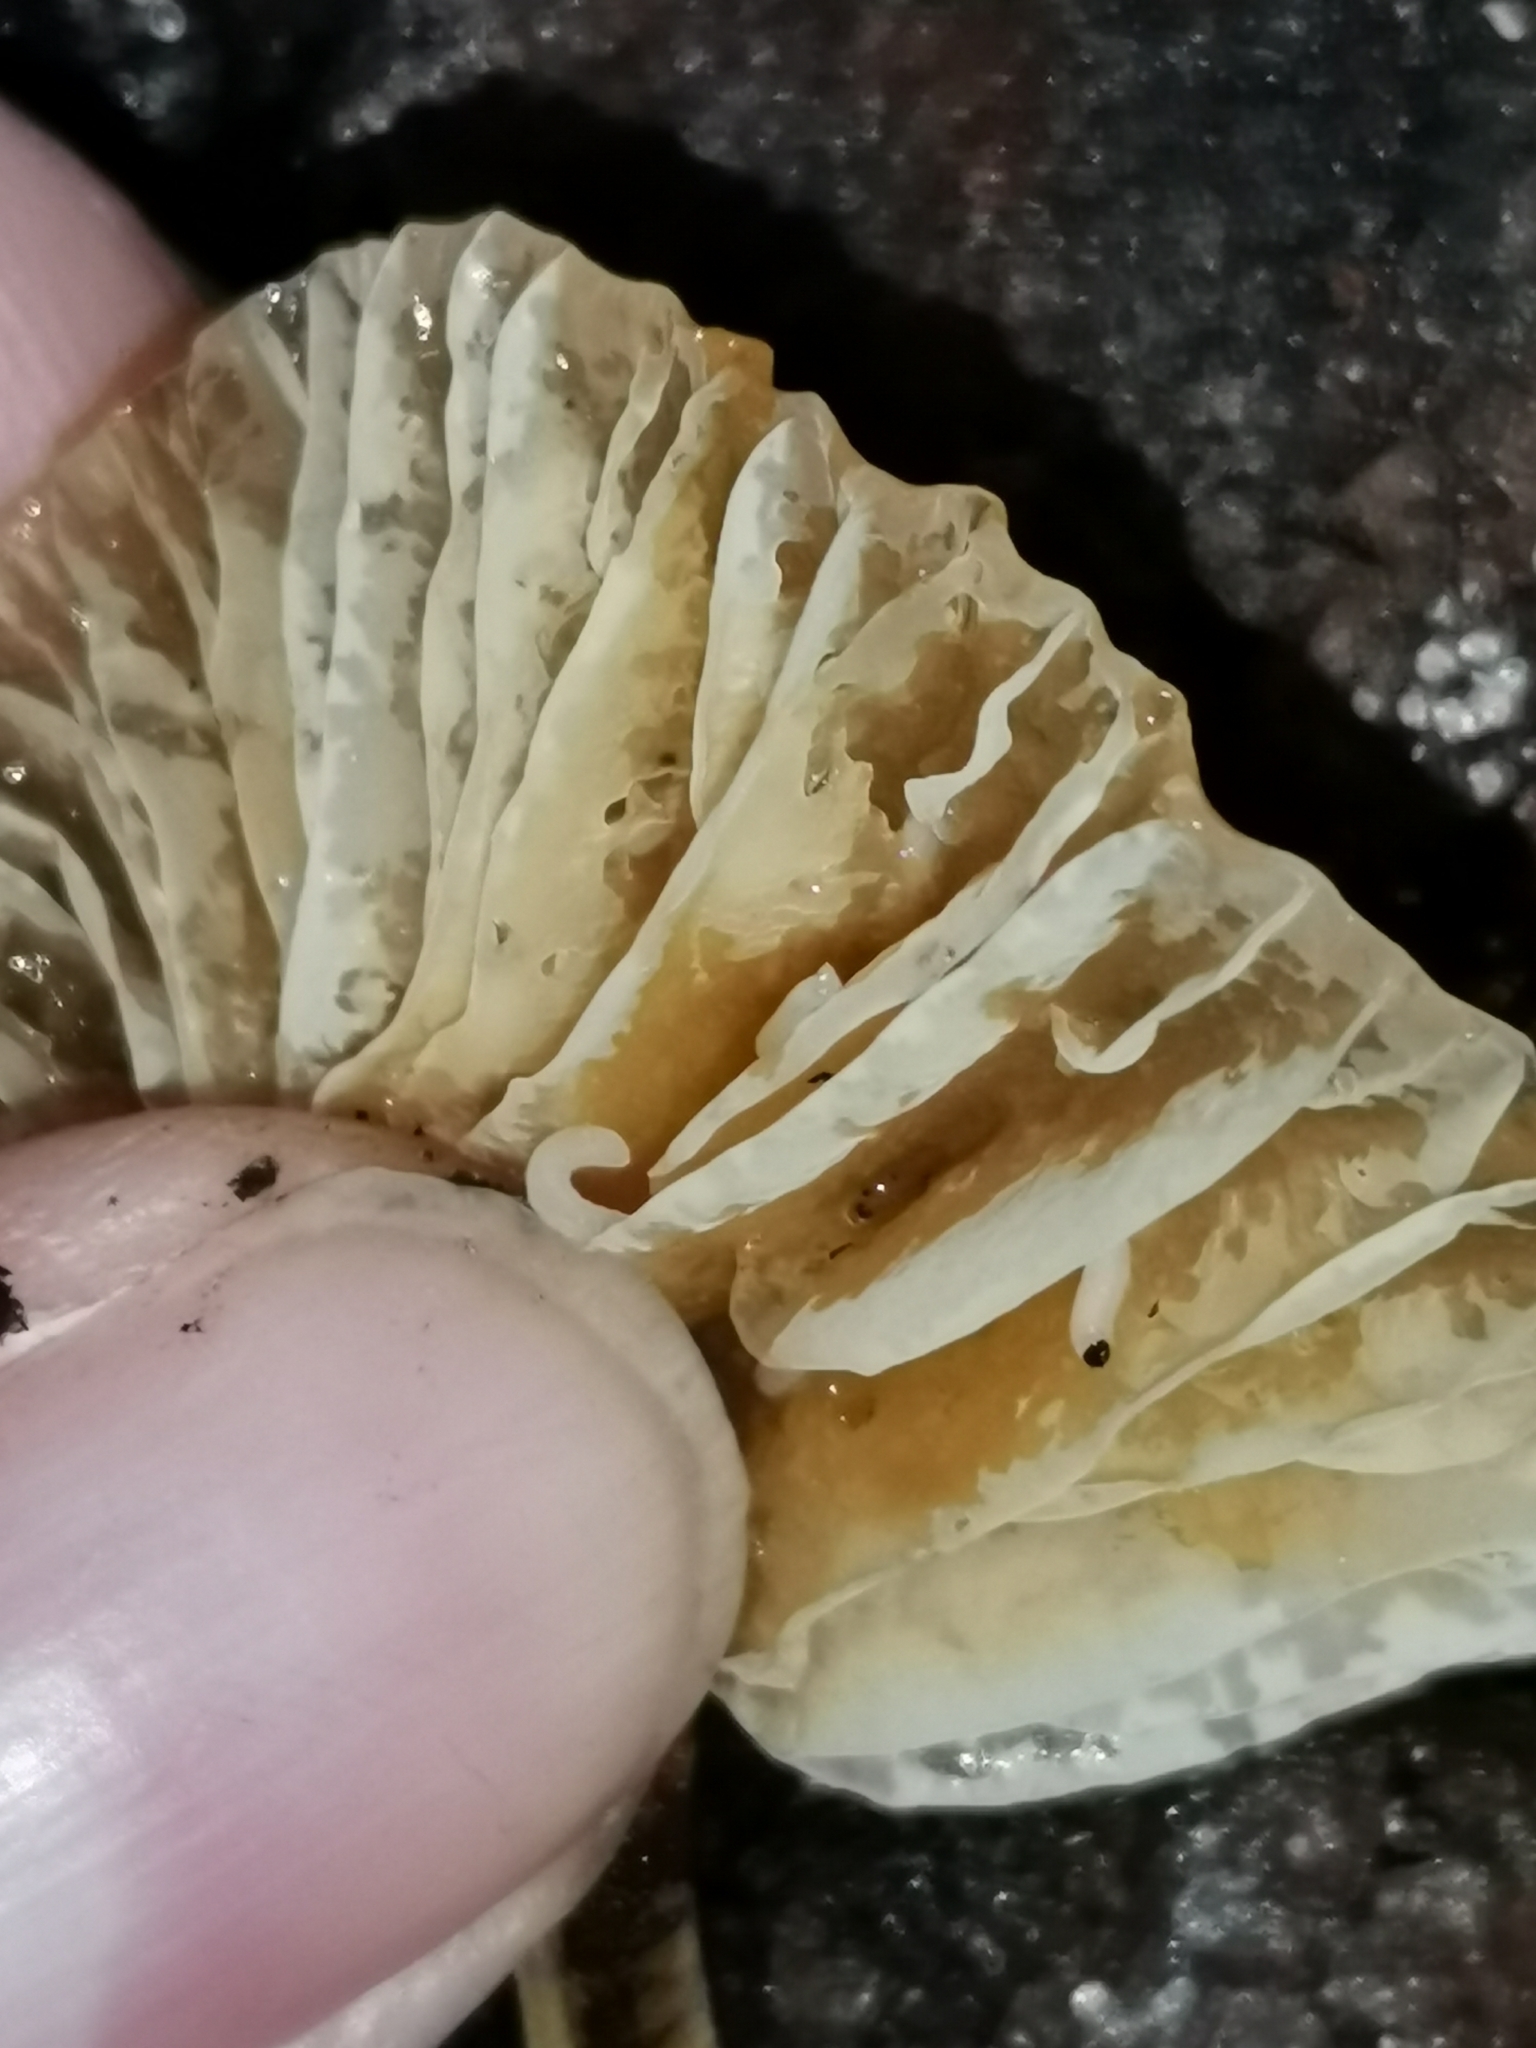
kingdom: Fungi
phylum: Basidiomycota
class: Agaricomycetes
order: Agaricales
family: Physalacriaceae
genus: Flammulina
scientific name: Flammulina
